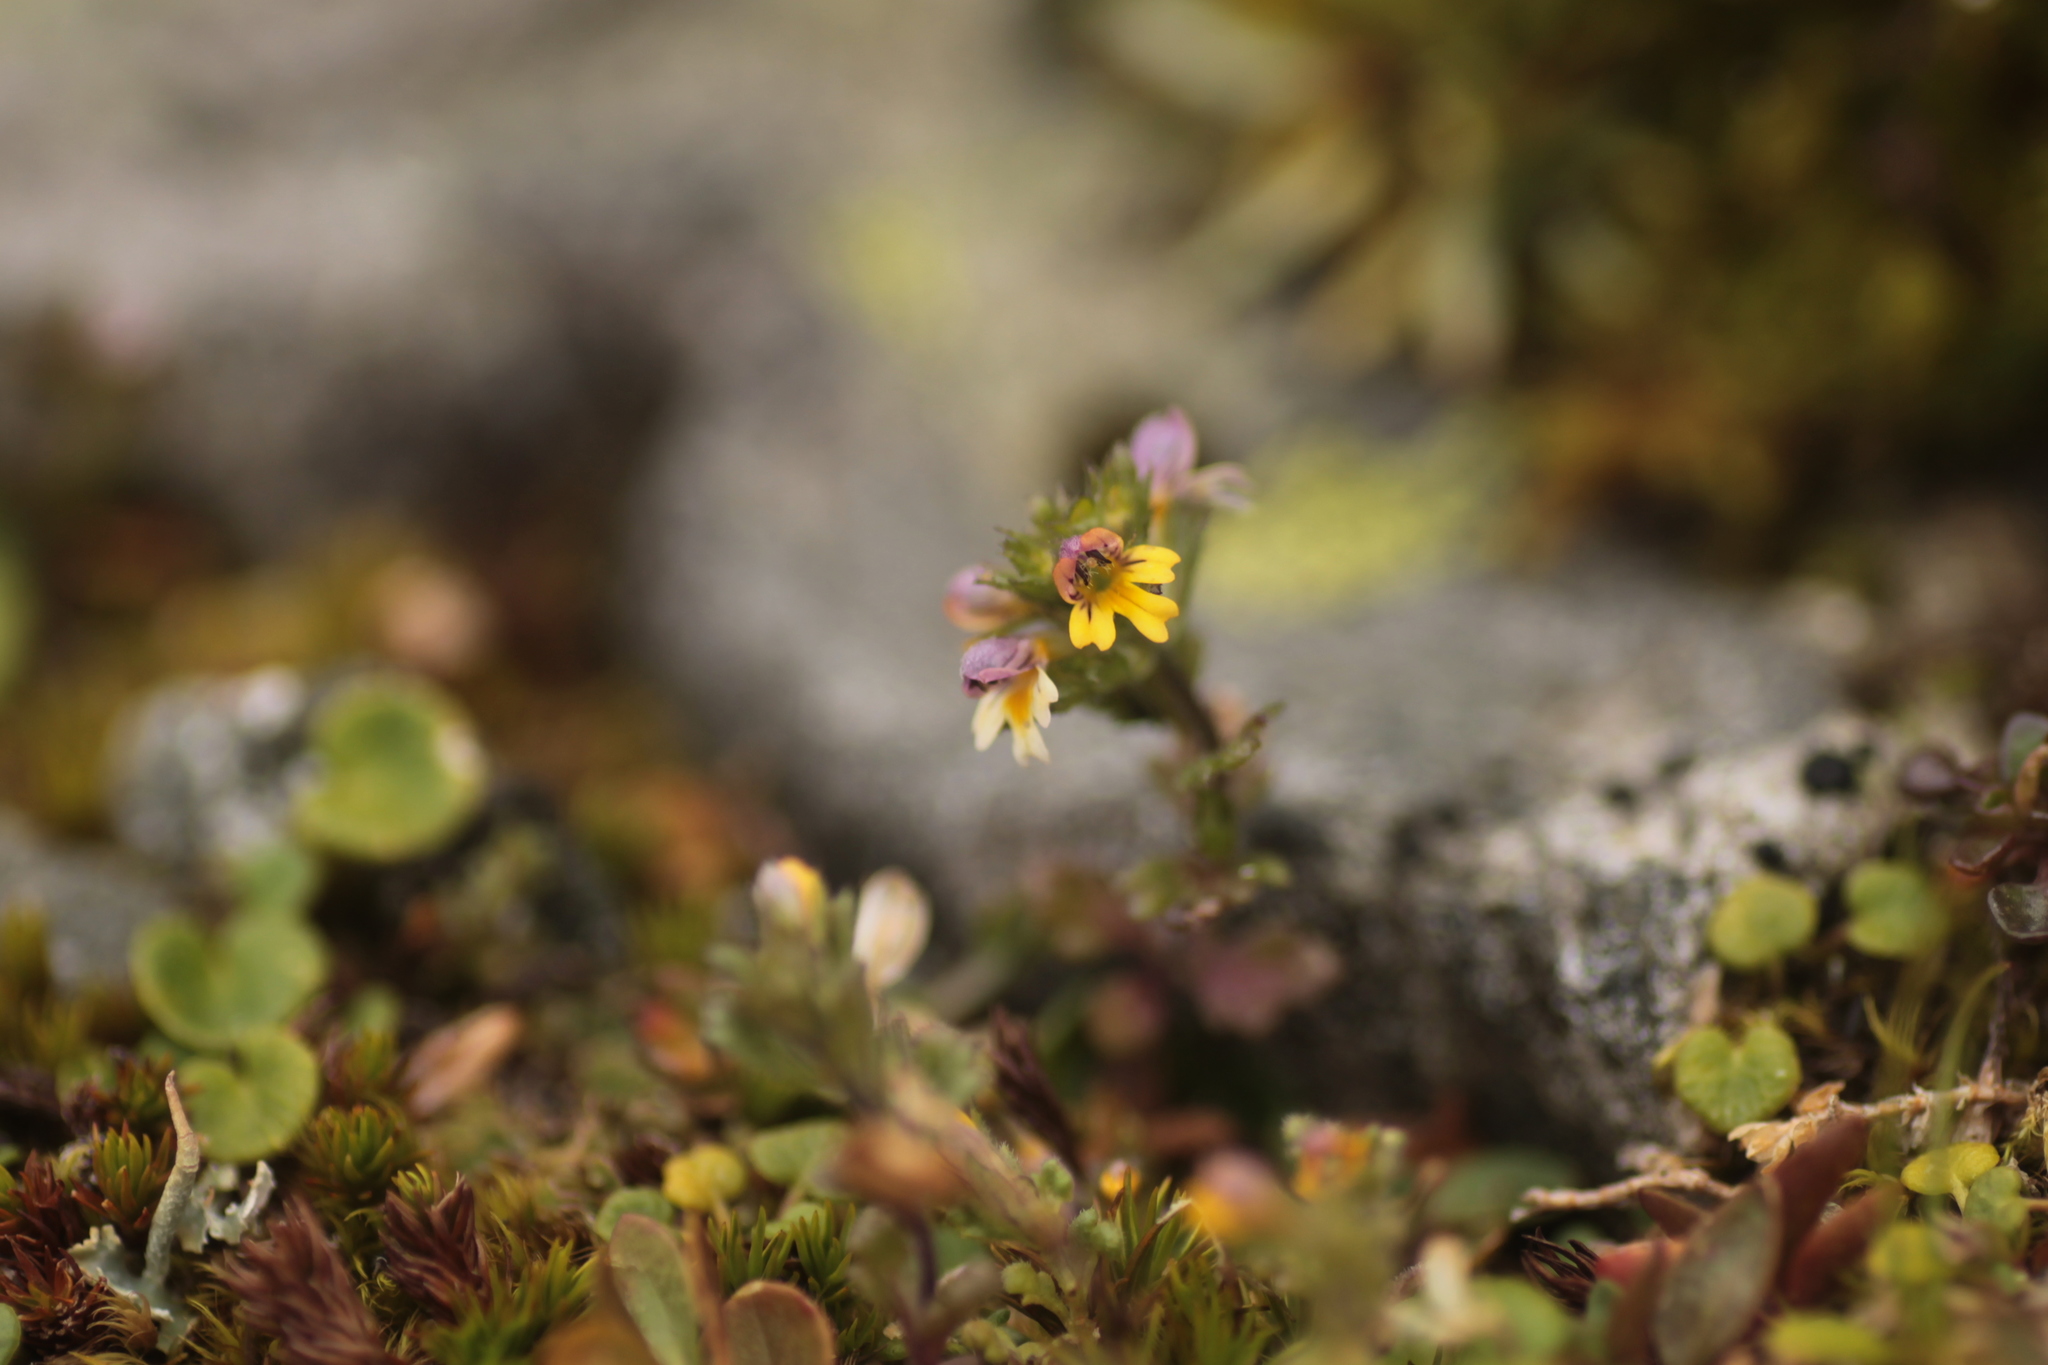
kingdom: Plantae
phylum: Tracheophyta
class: Magnoliopsida
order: Lamiales
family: Orobanchaceae
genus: Euphrasia
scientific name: Euphrasia minima
